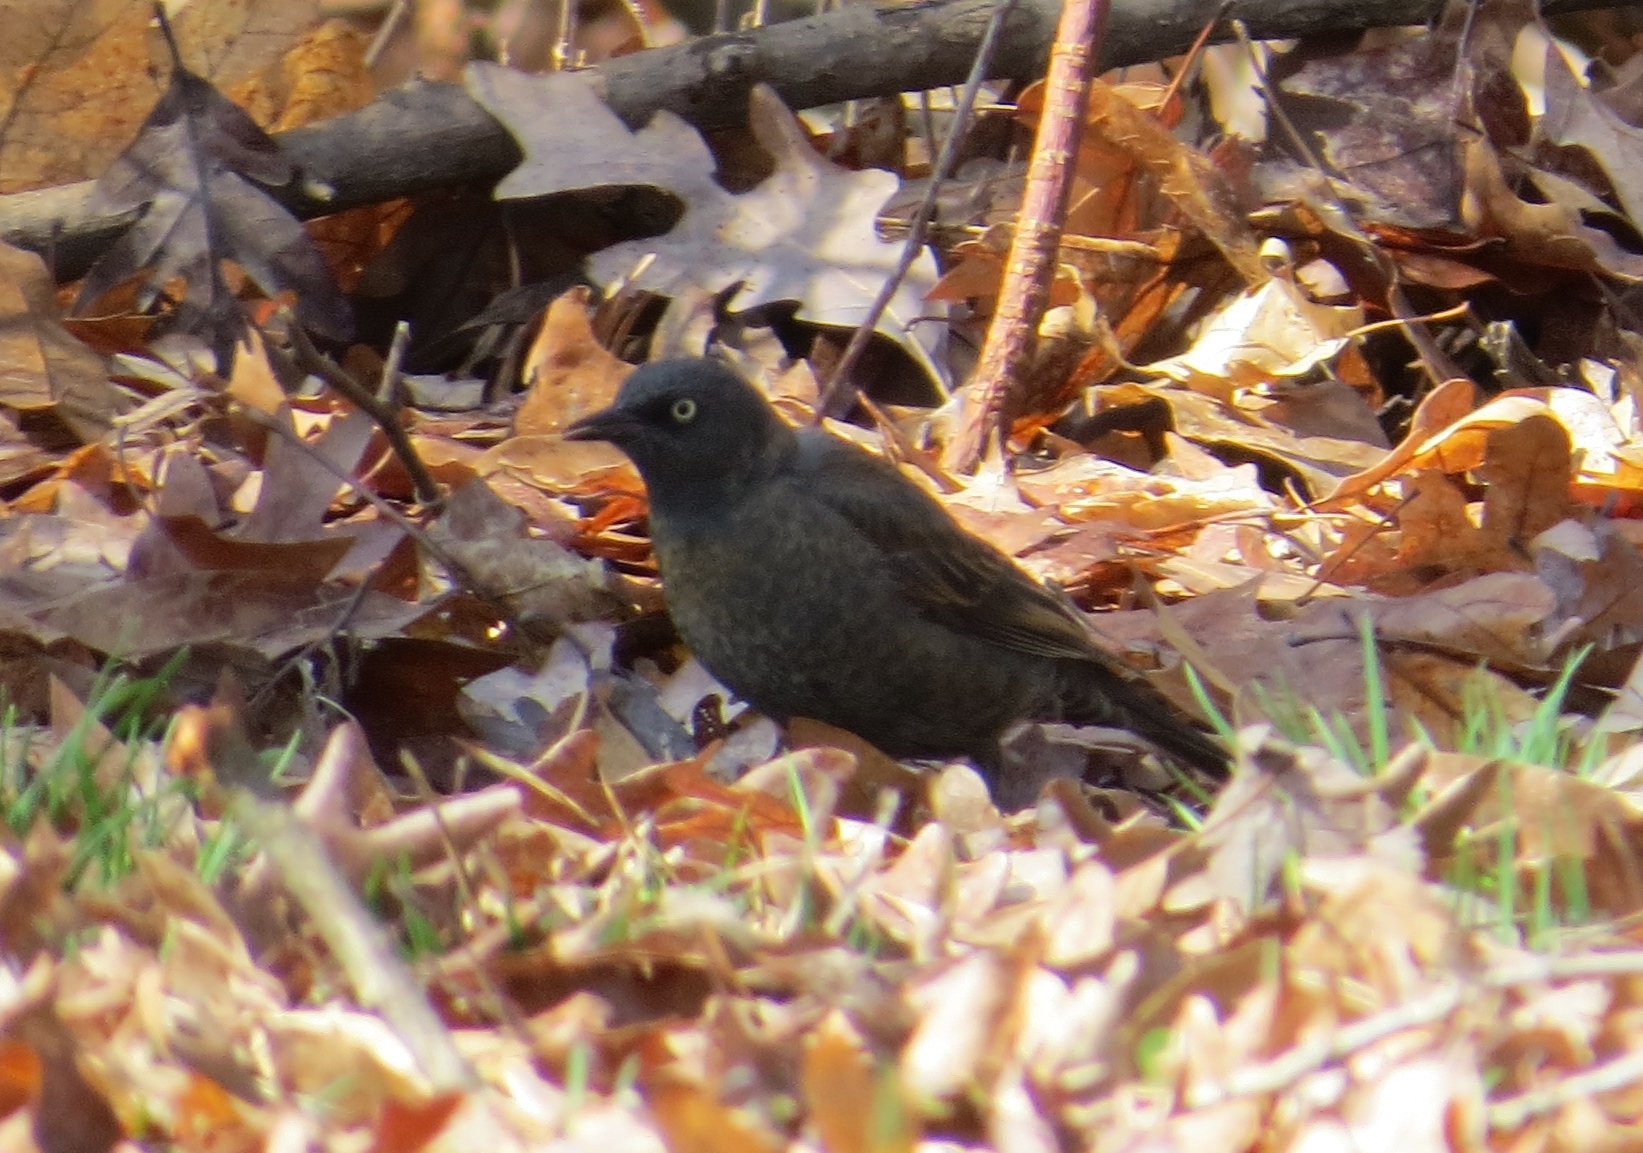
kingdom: Animalia
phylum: Chordata
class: Aves
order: Passeriformes
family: Icteridae
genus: Euphagus
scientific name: Euphagus carolinus
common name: Rusty blackbird
